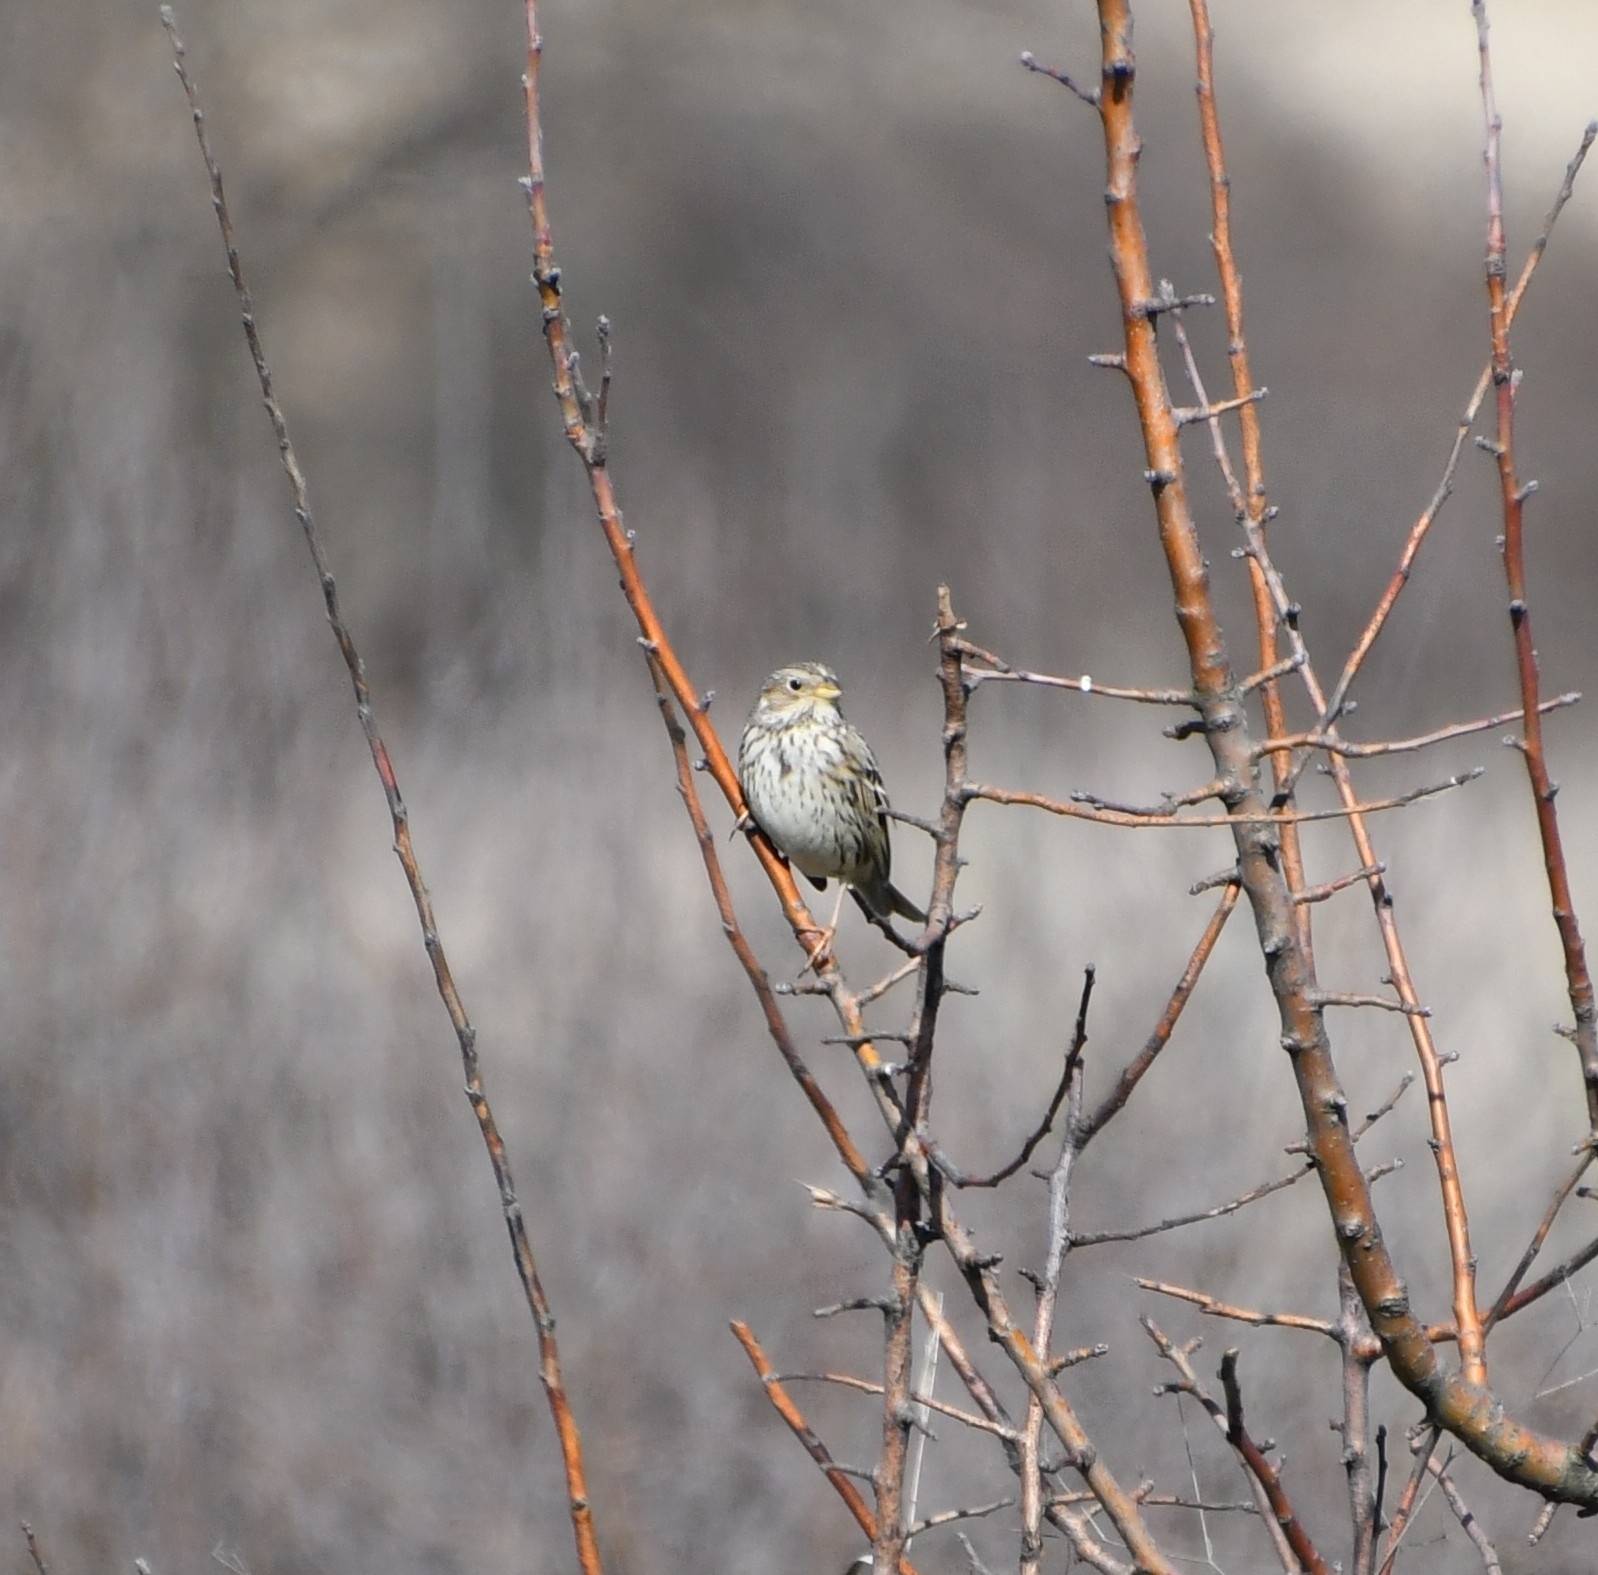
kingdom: Animalia
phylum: Chordata
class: Aves
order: Passeriformes
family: Emberizidae
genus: Emberiza
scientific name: Emberiza calandra
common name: Corn bunting
